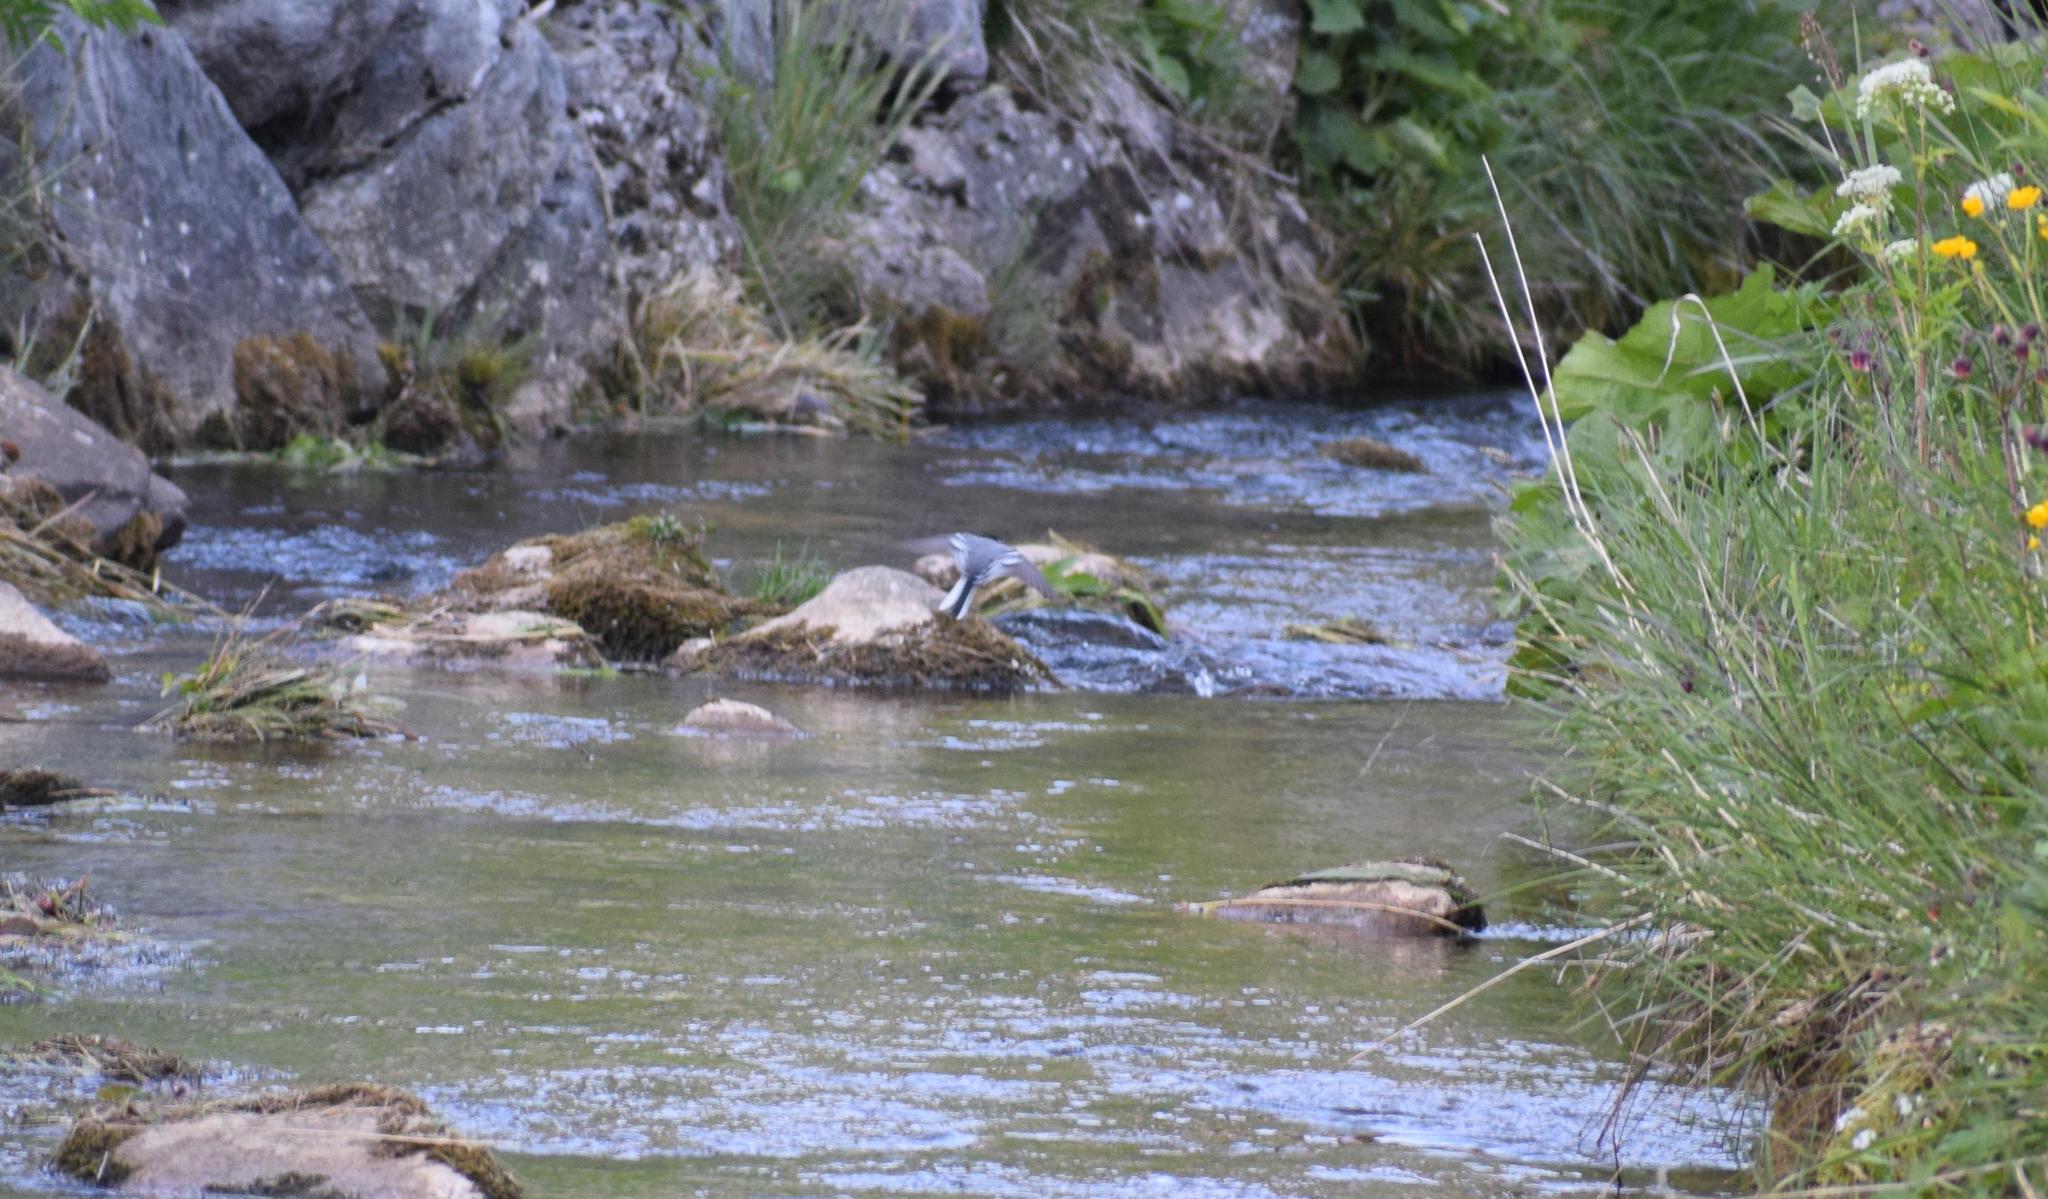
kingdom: Animalia
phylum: Chordata
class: Aves
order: Passeriformes
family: Motacillidae
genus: Motacilla
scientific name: Motacilla alba
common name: White wagtail
